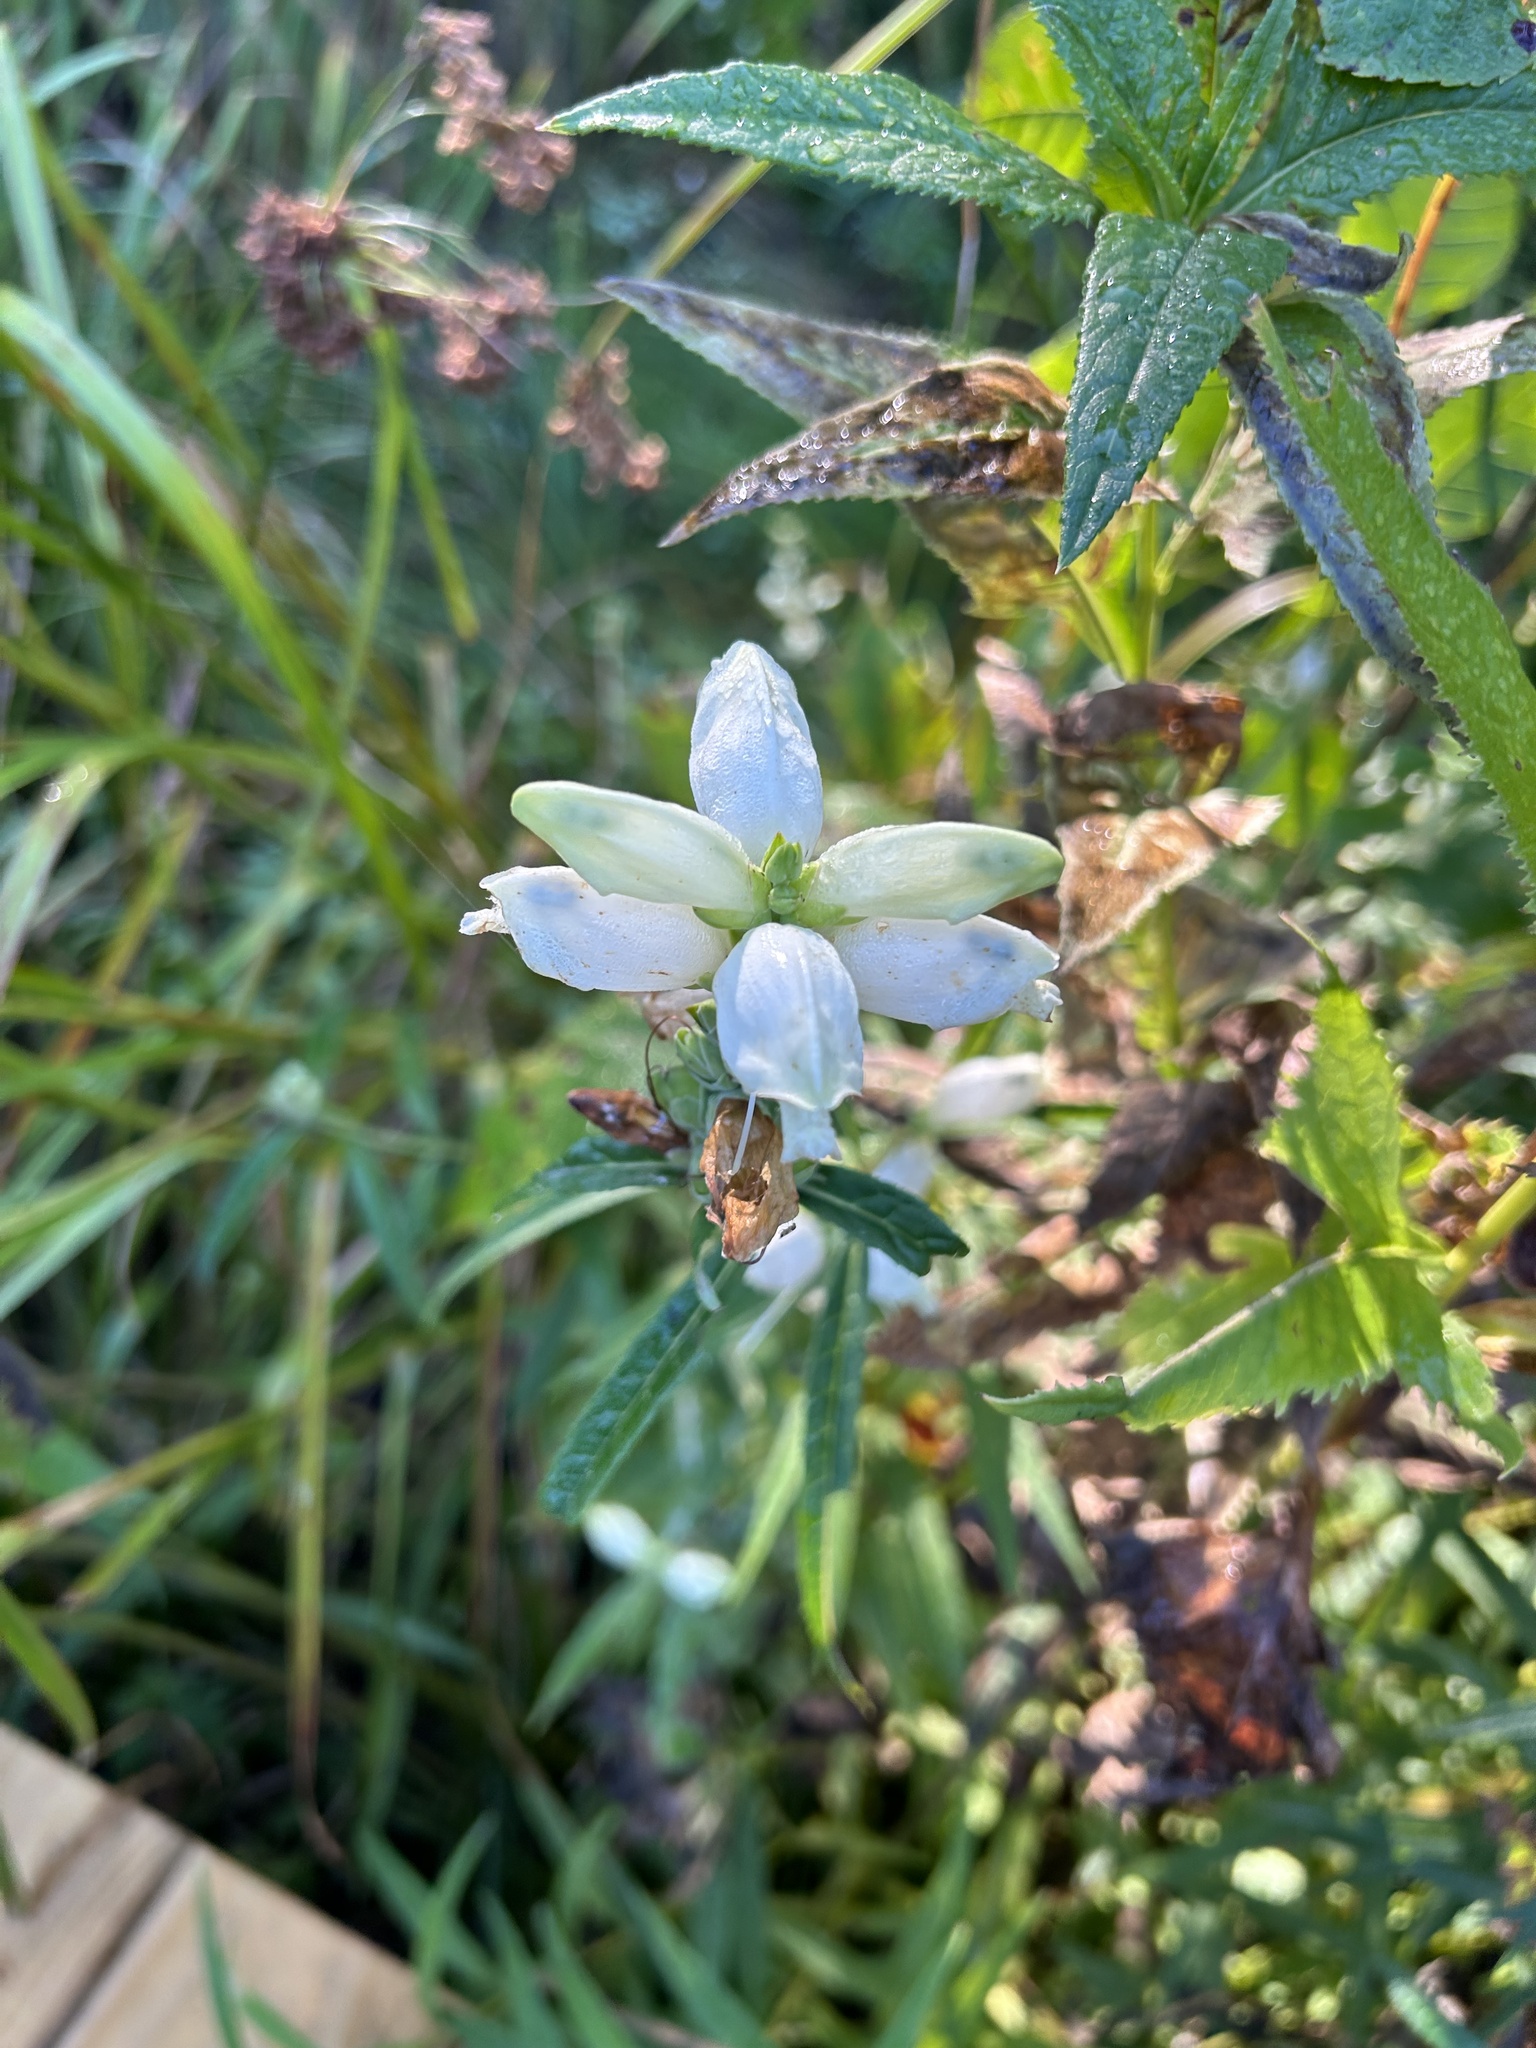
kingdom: Plantae
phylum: Tracheophyta
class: Magnoliopsida
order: Lamiales
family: Plantaginaceae
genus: Chelone
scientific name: Chelone glabra
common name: Snakehead
